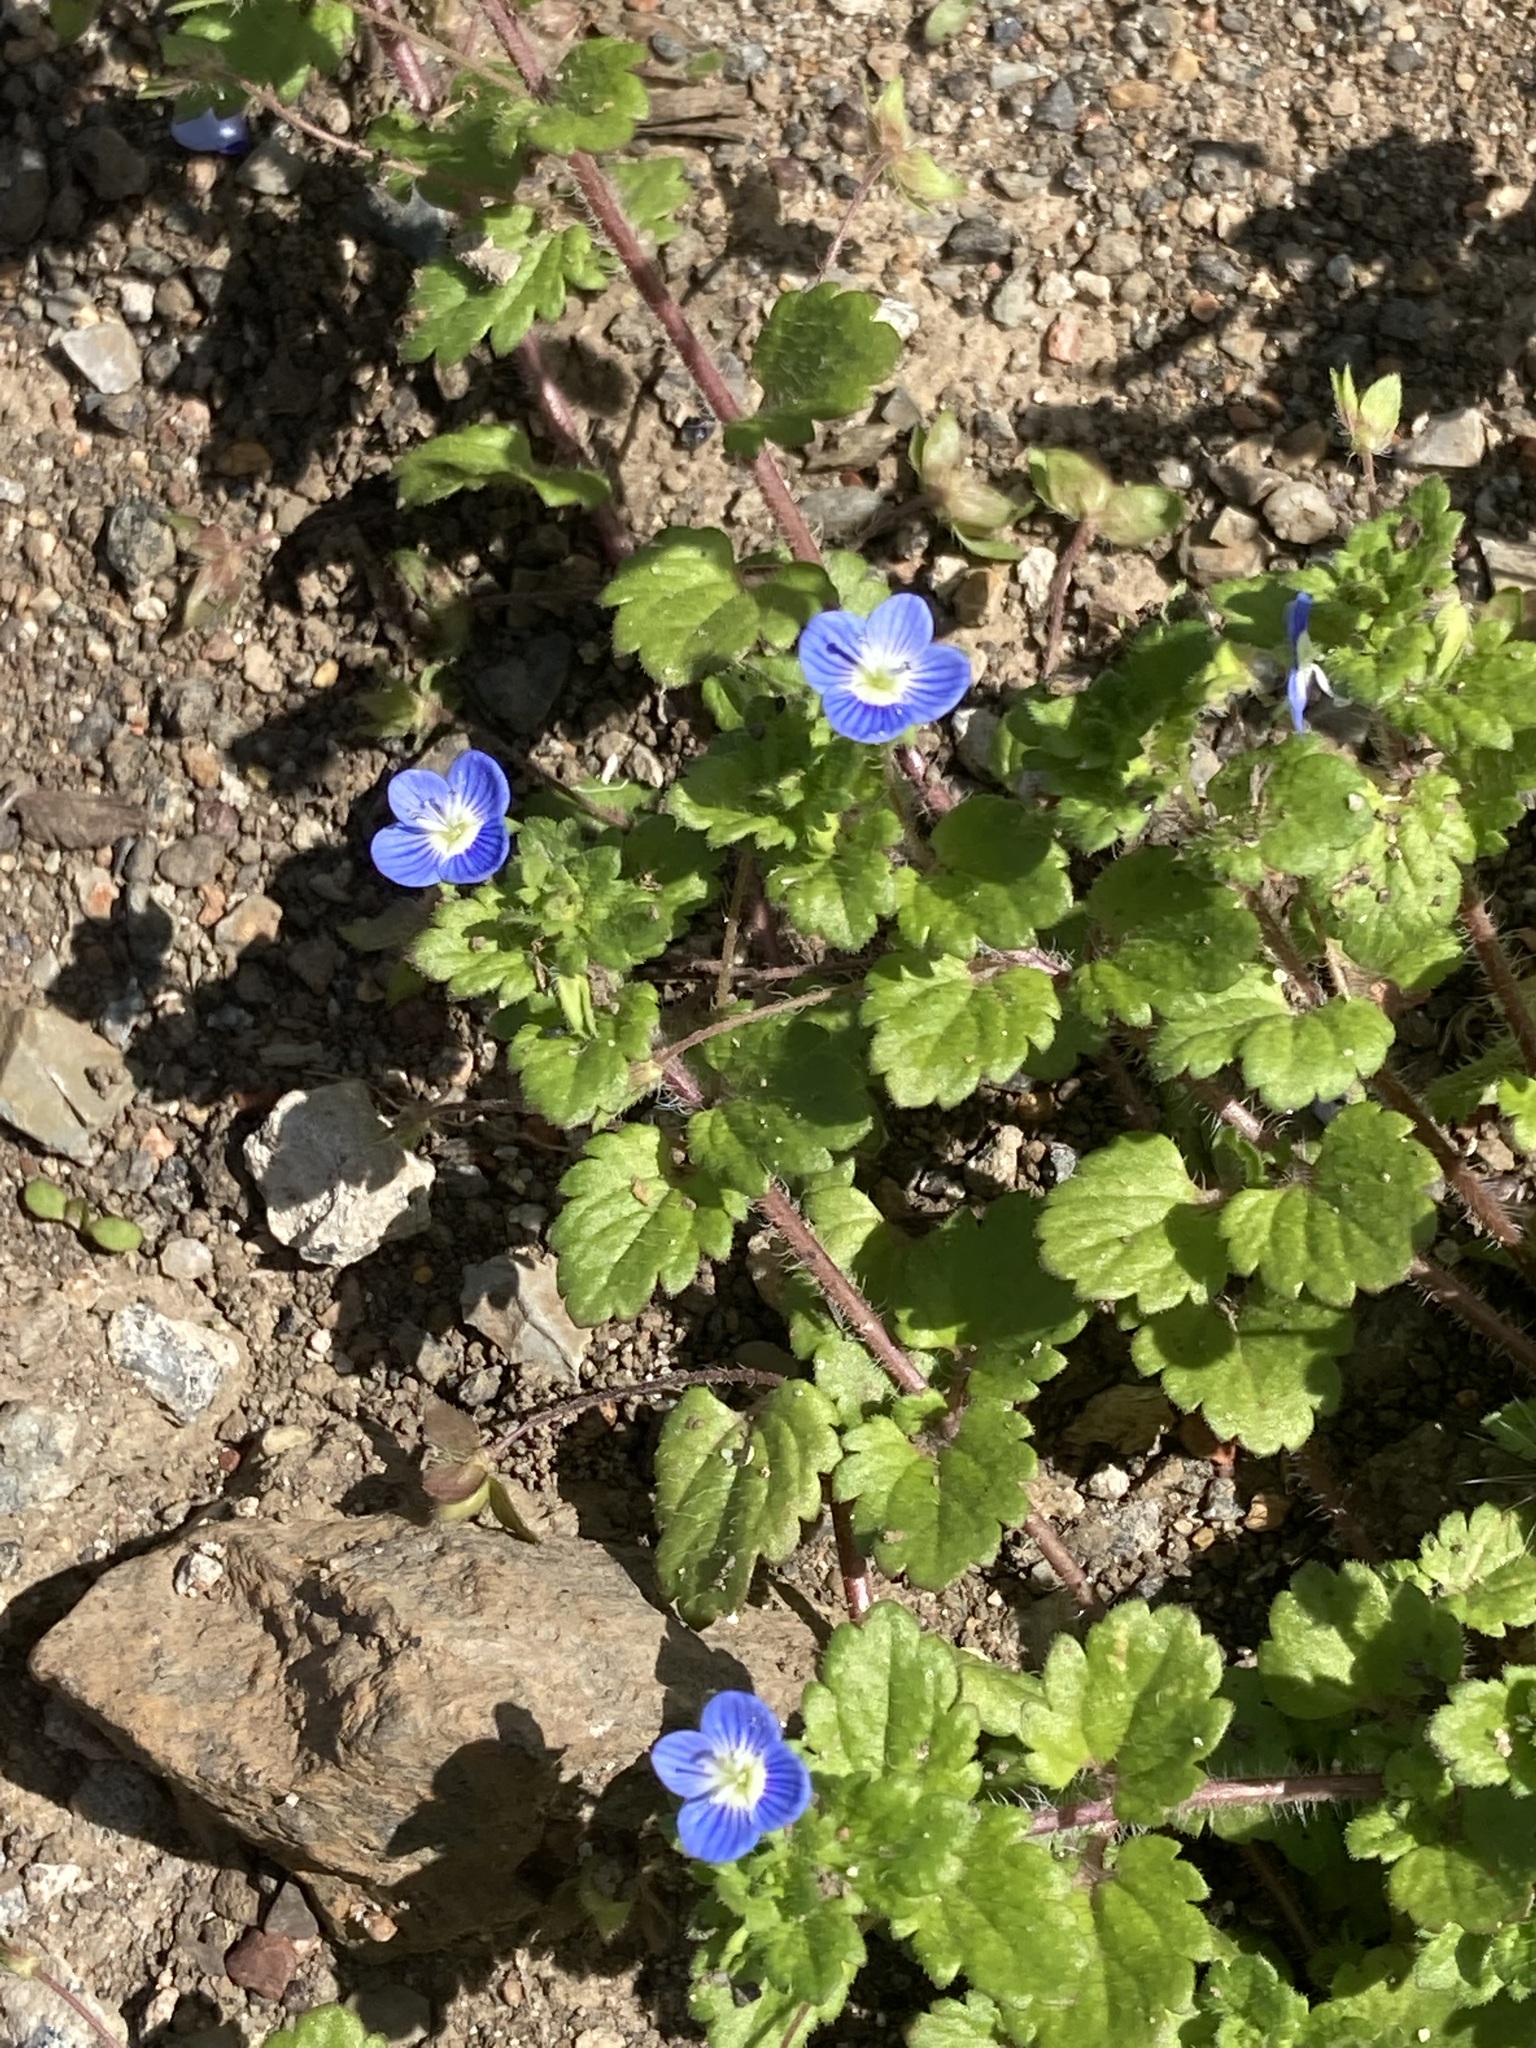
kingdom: Plantae
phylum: Tracheophyta
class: Magnoliopsida
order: Lamiales
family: Plantaginaceae
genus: Veronica
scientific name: Veronica persica
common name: Common field-speedwell
